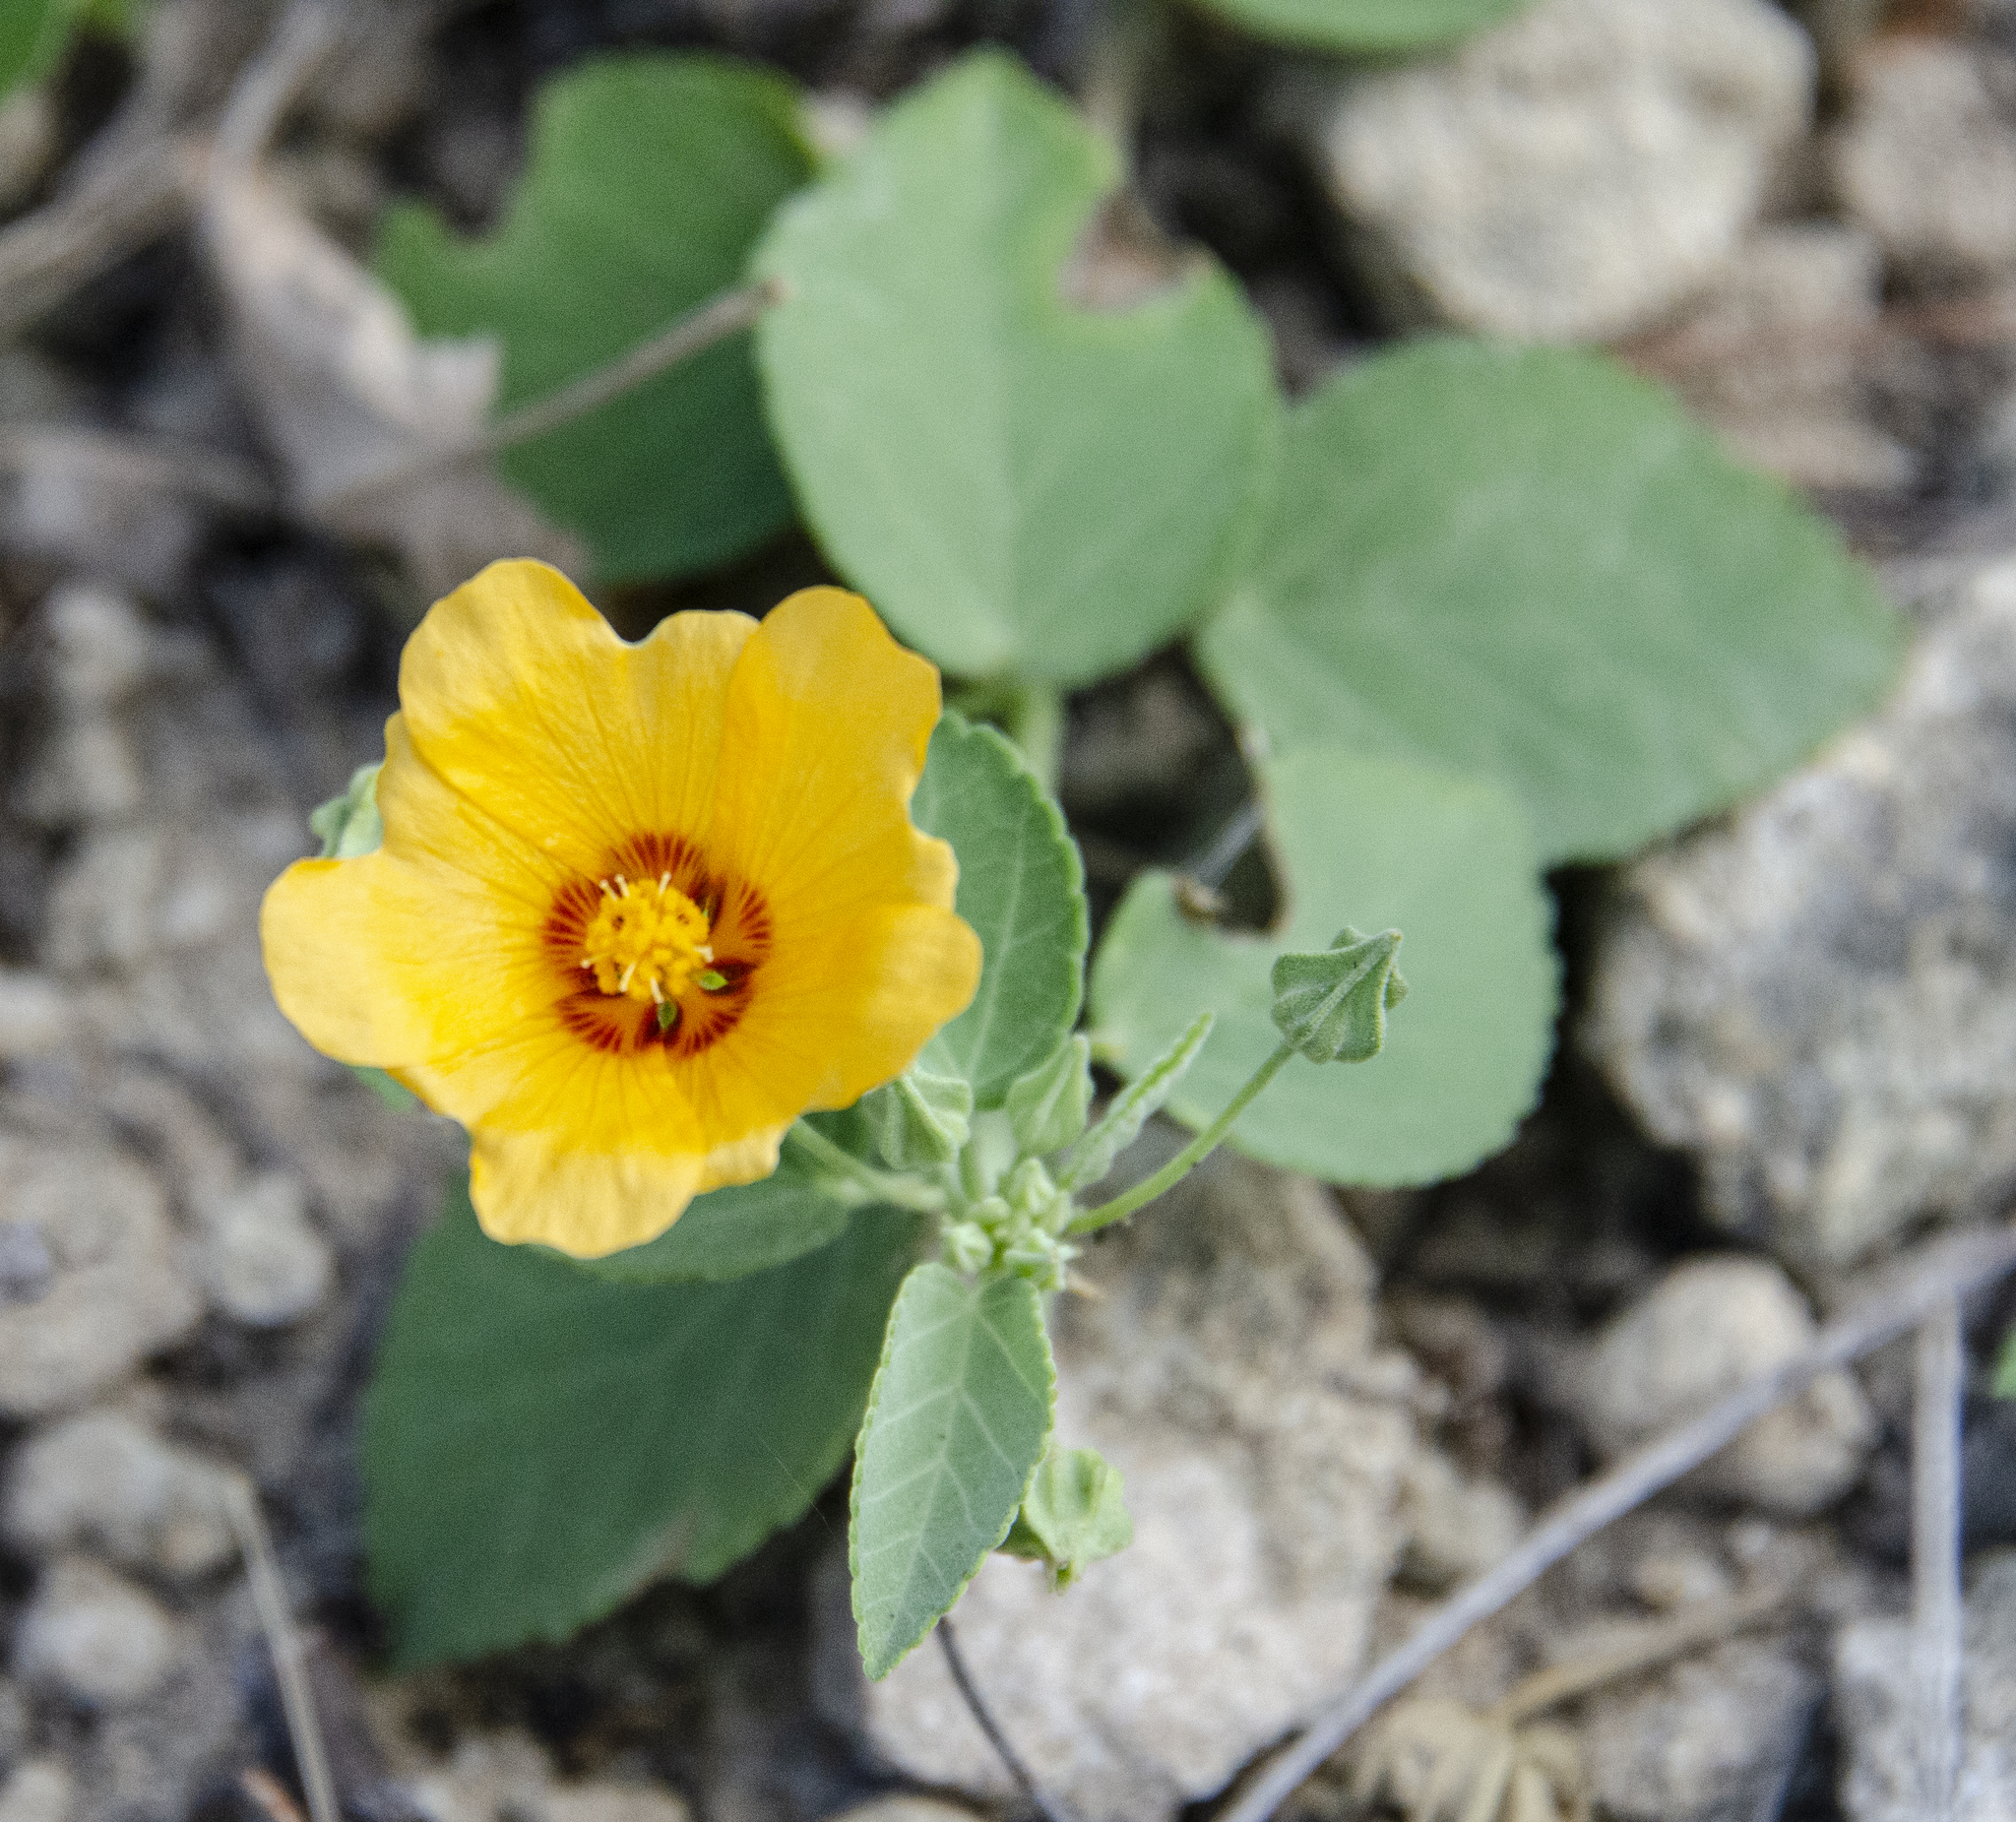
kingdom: Plantae
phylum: Tracheophyta
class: Magnoliopsida
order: Malvales
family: Malvaceae
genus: Sida
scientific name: Sida fallax
